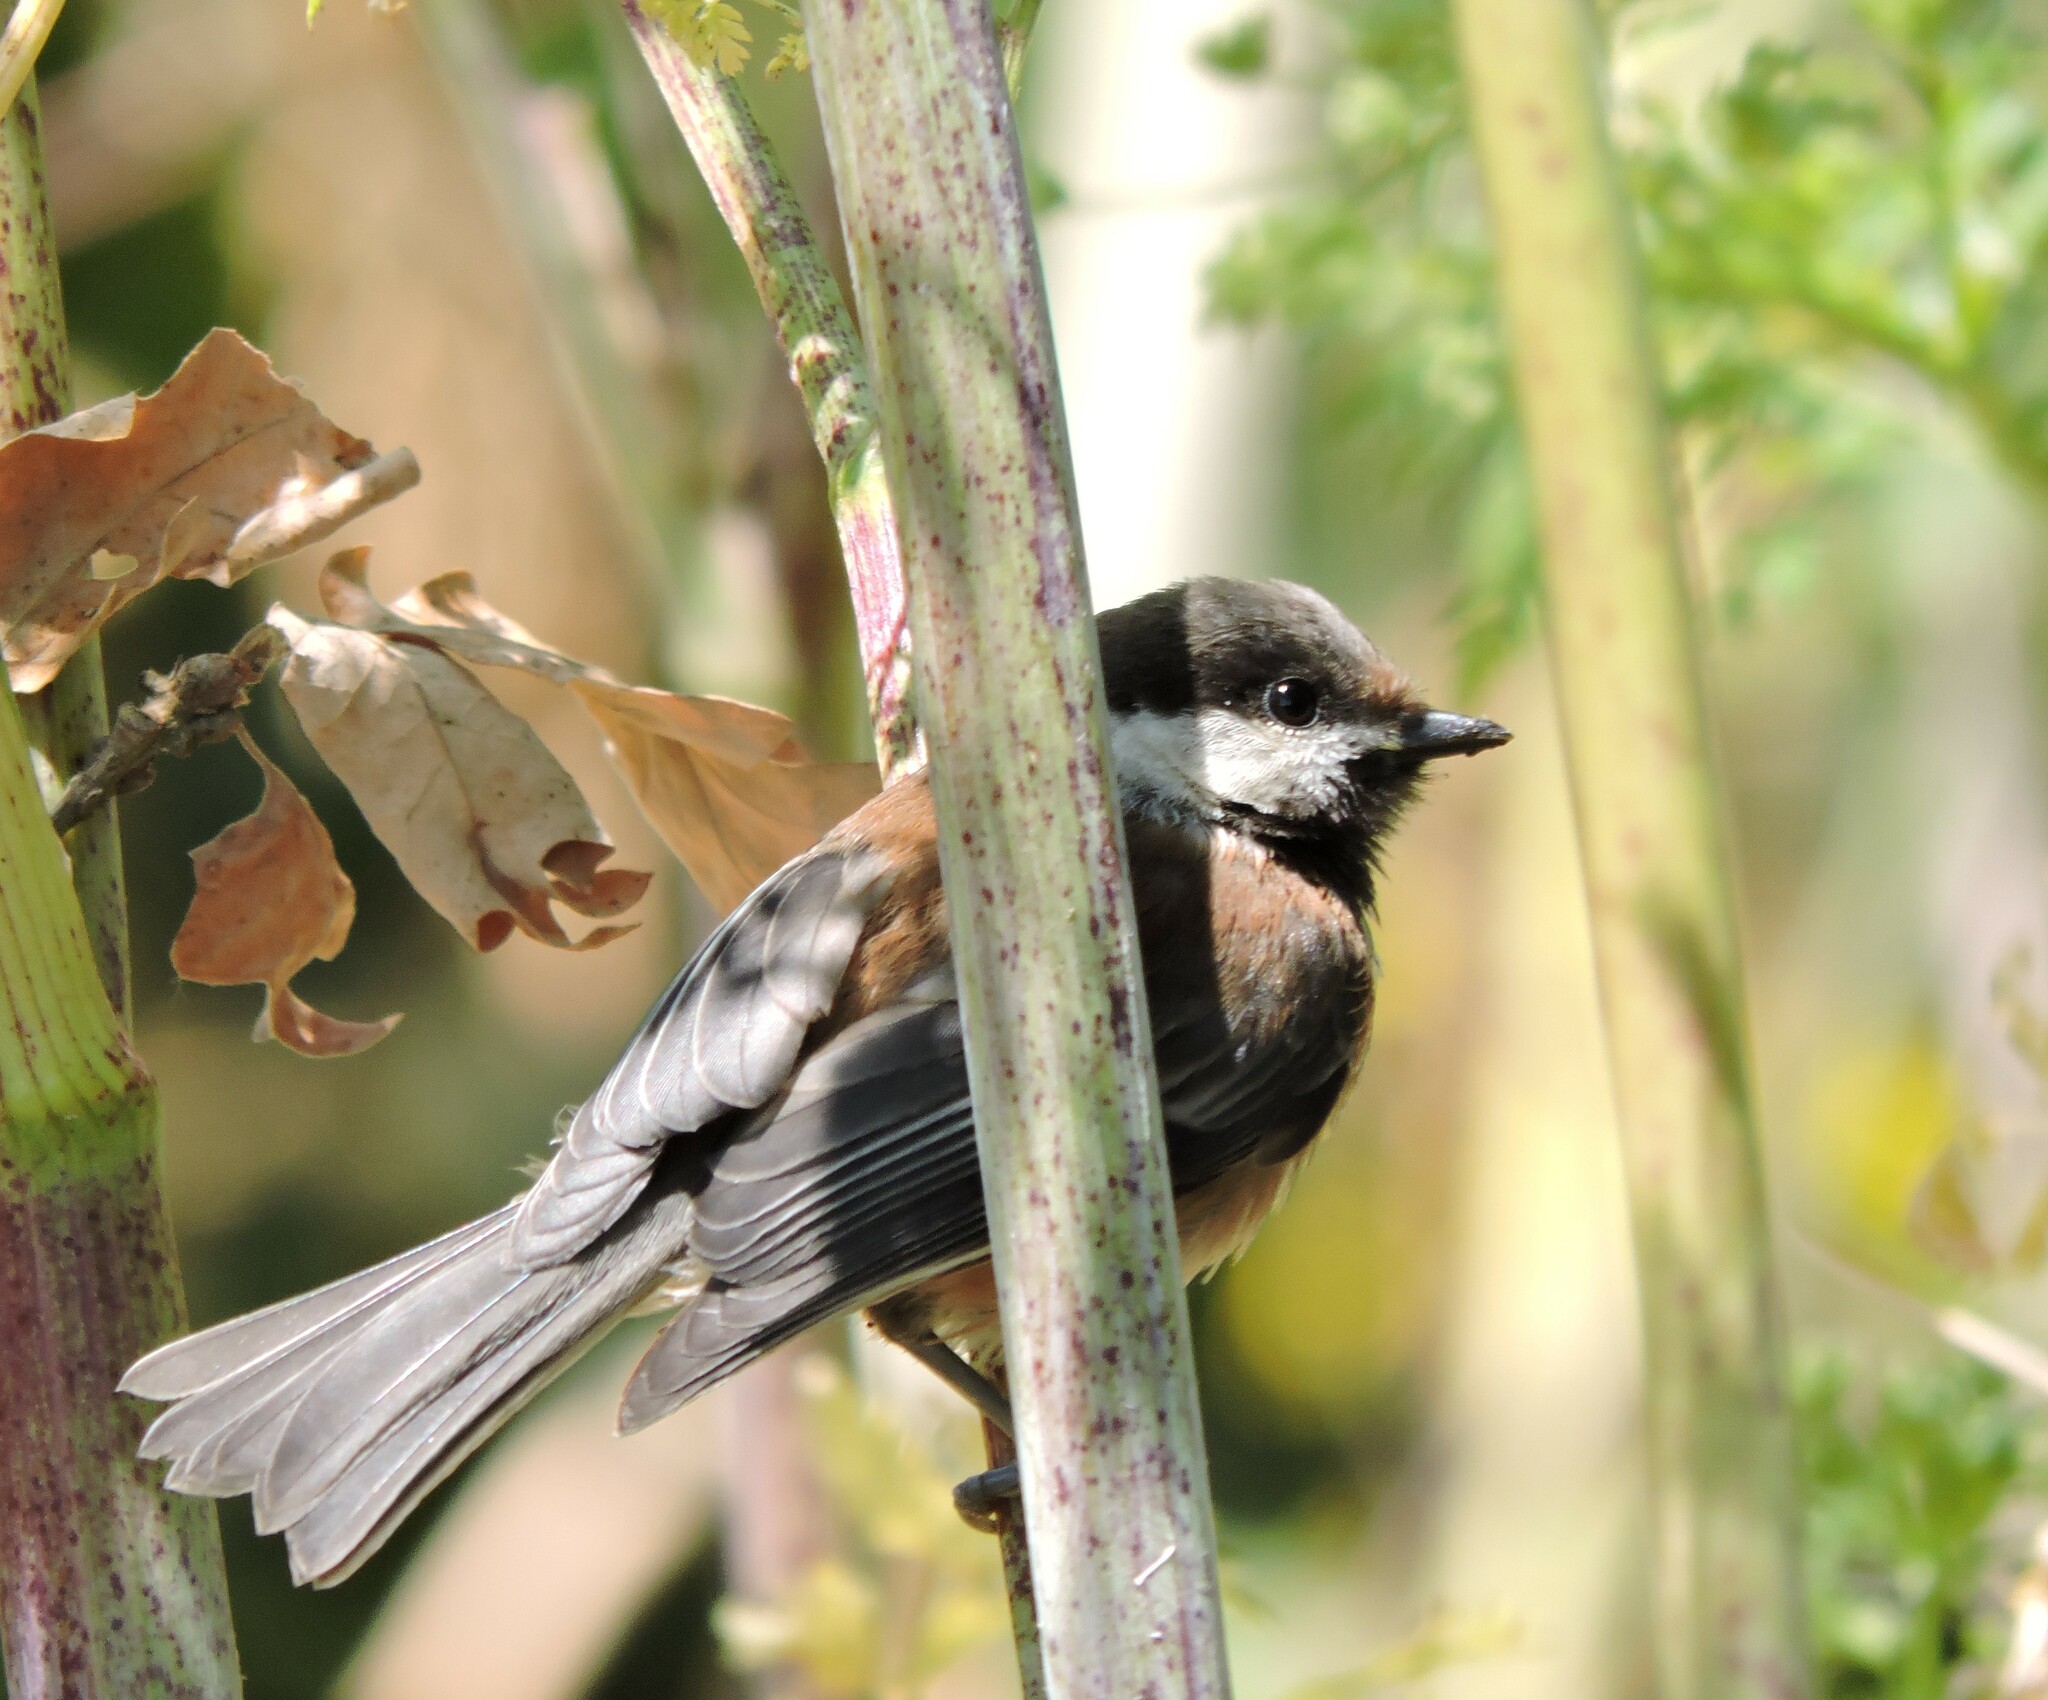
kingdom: Animalia
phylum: Chordata
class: Aves
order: Passeriformes
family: Paridae
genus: Poecile
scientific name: Poecile rufescens
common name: Chestnut-backed chickadee
